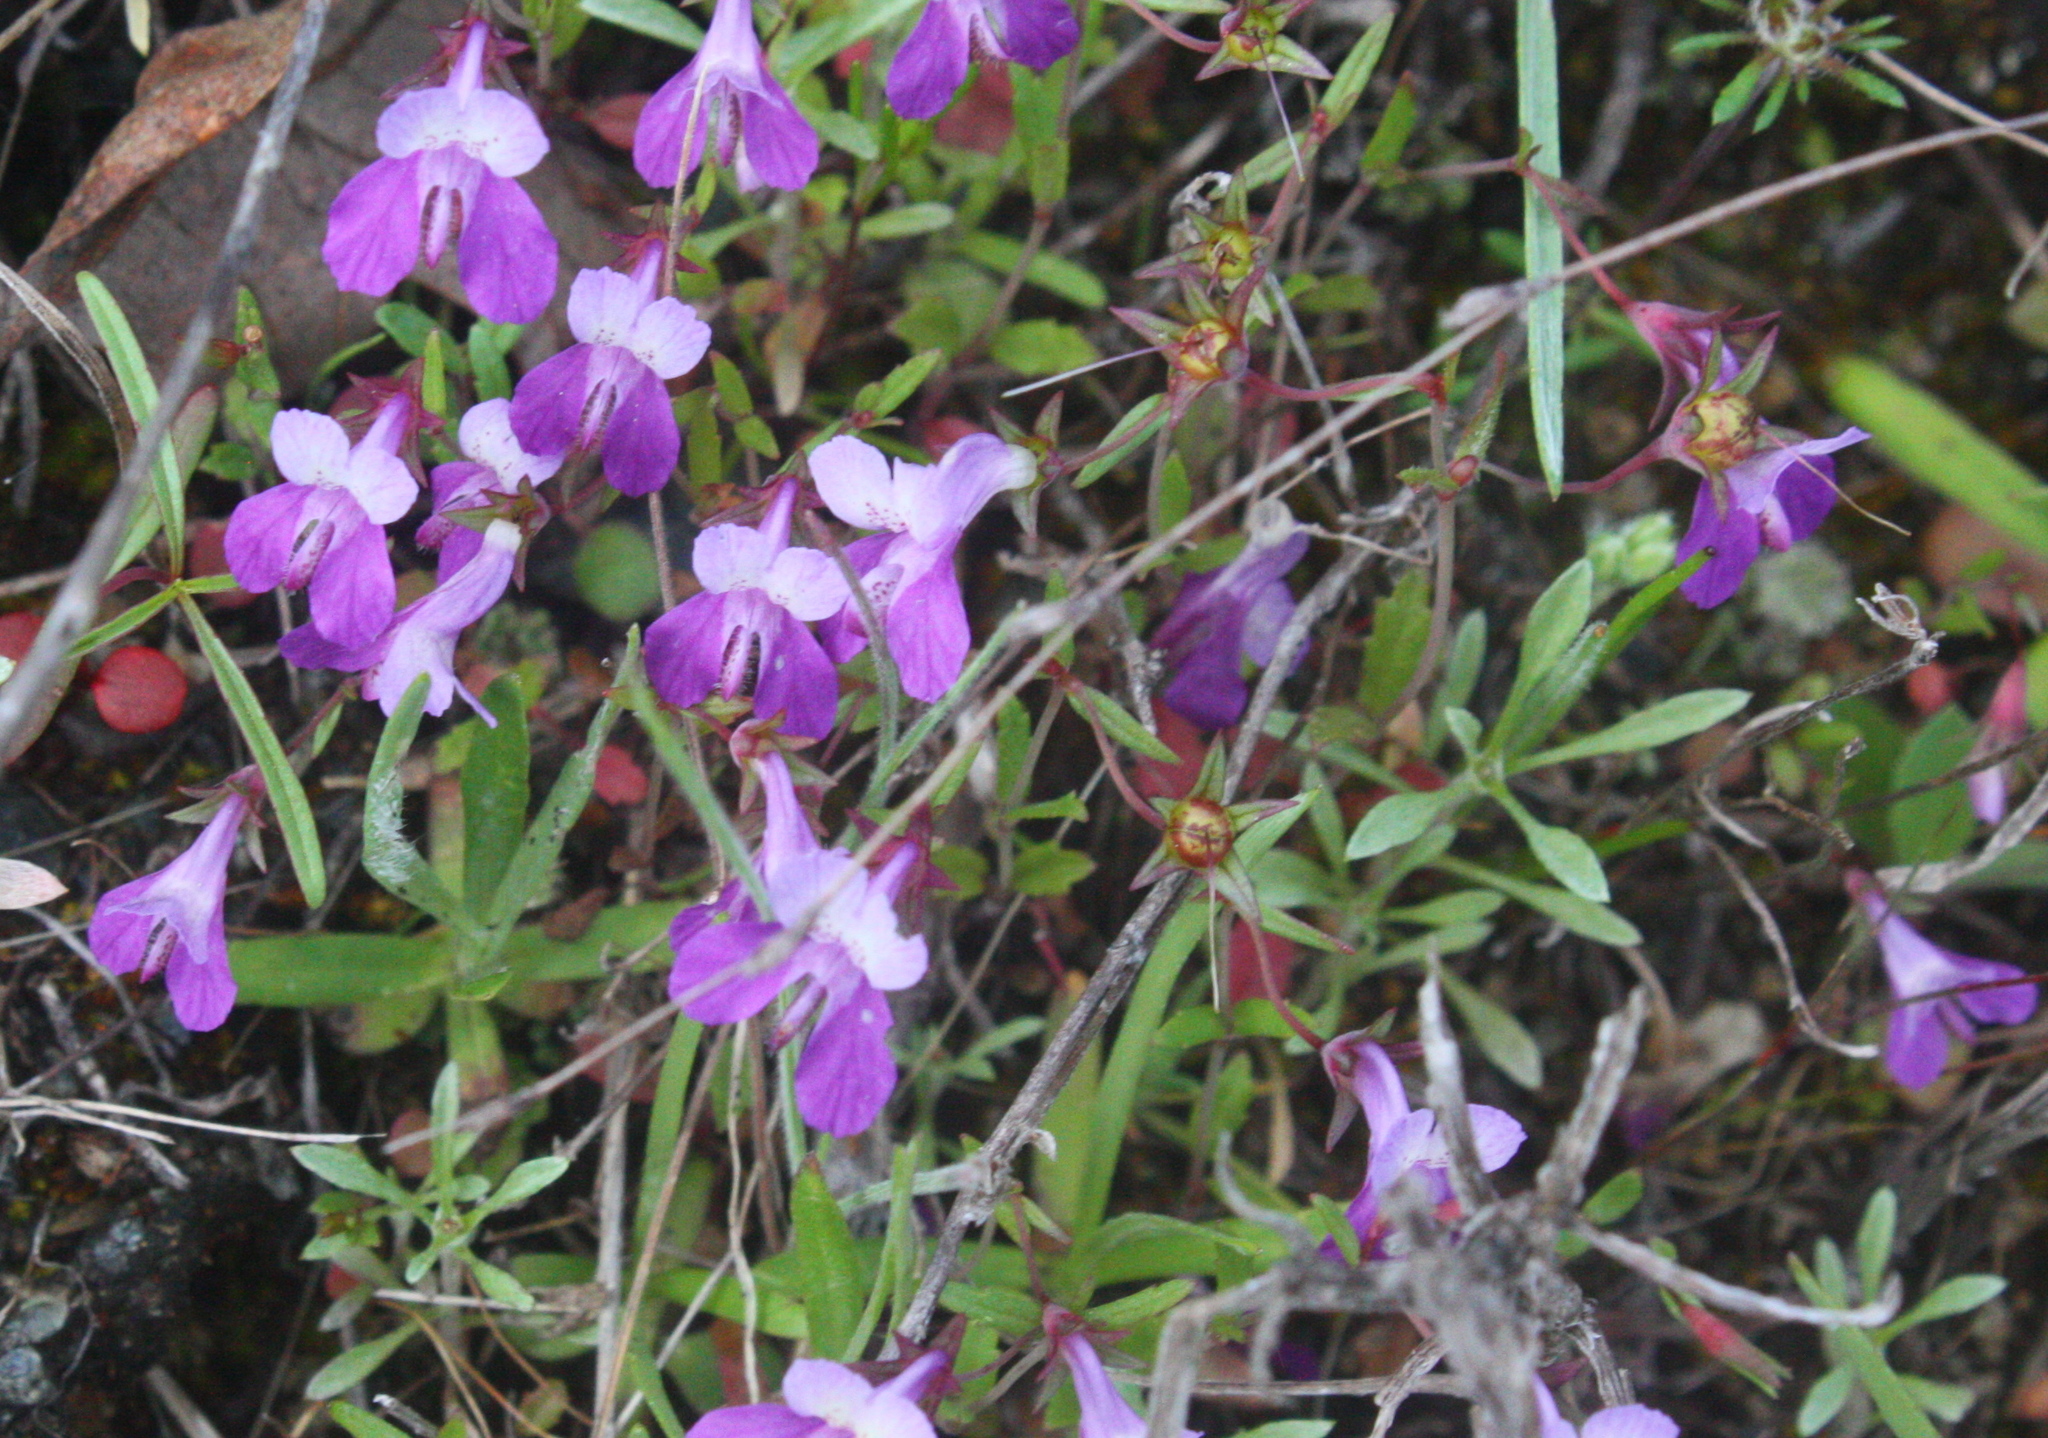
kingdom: Plantae
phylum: Tracheophyta
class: Magnoliopsida
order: Lamiales
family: Plantaginaceae
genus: Collinsia
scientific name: Collinsia sparsiflora
